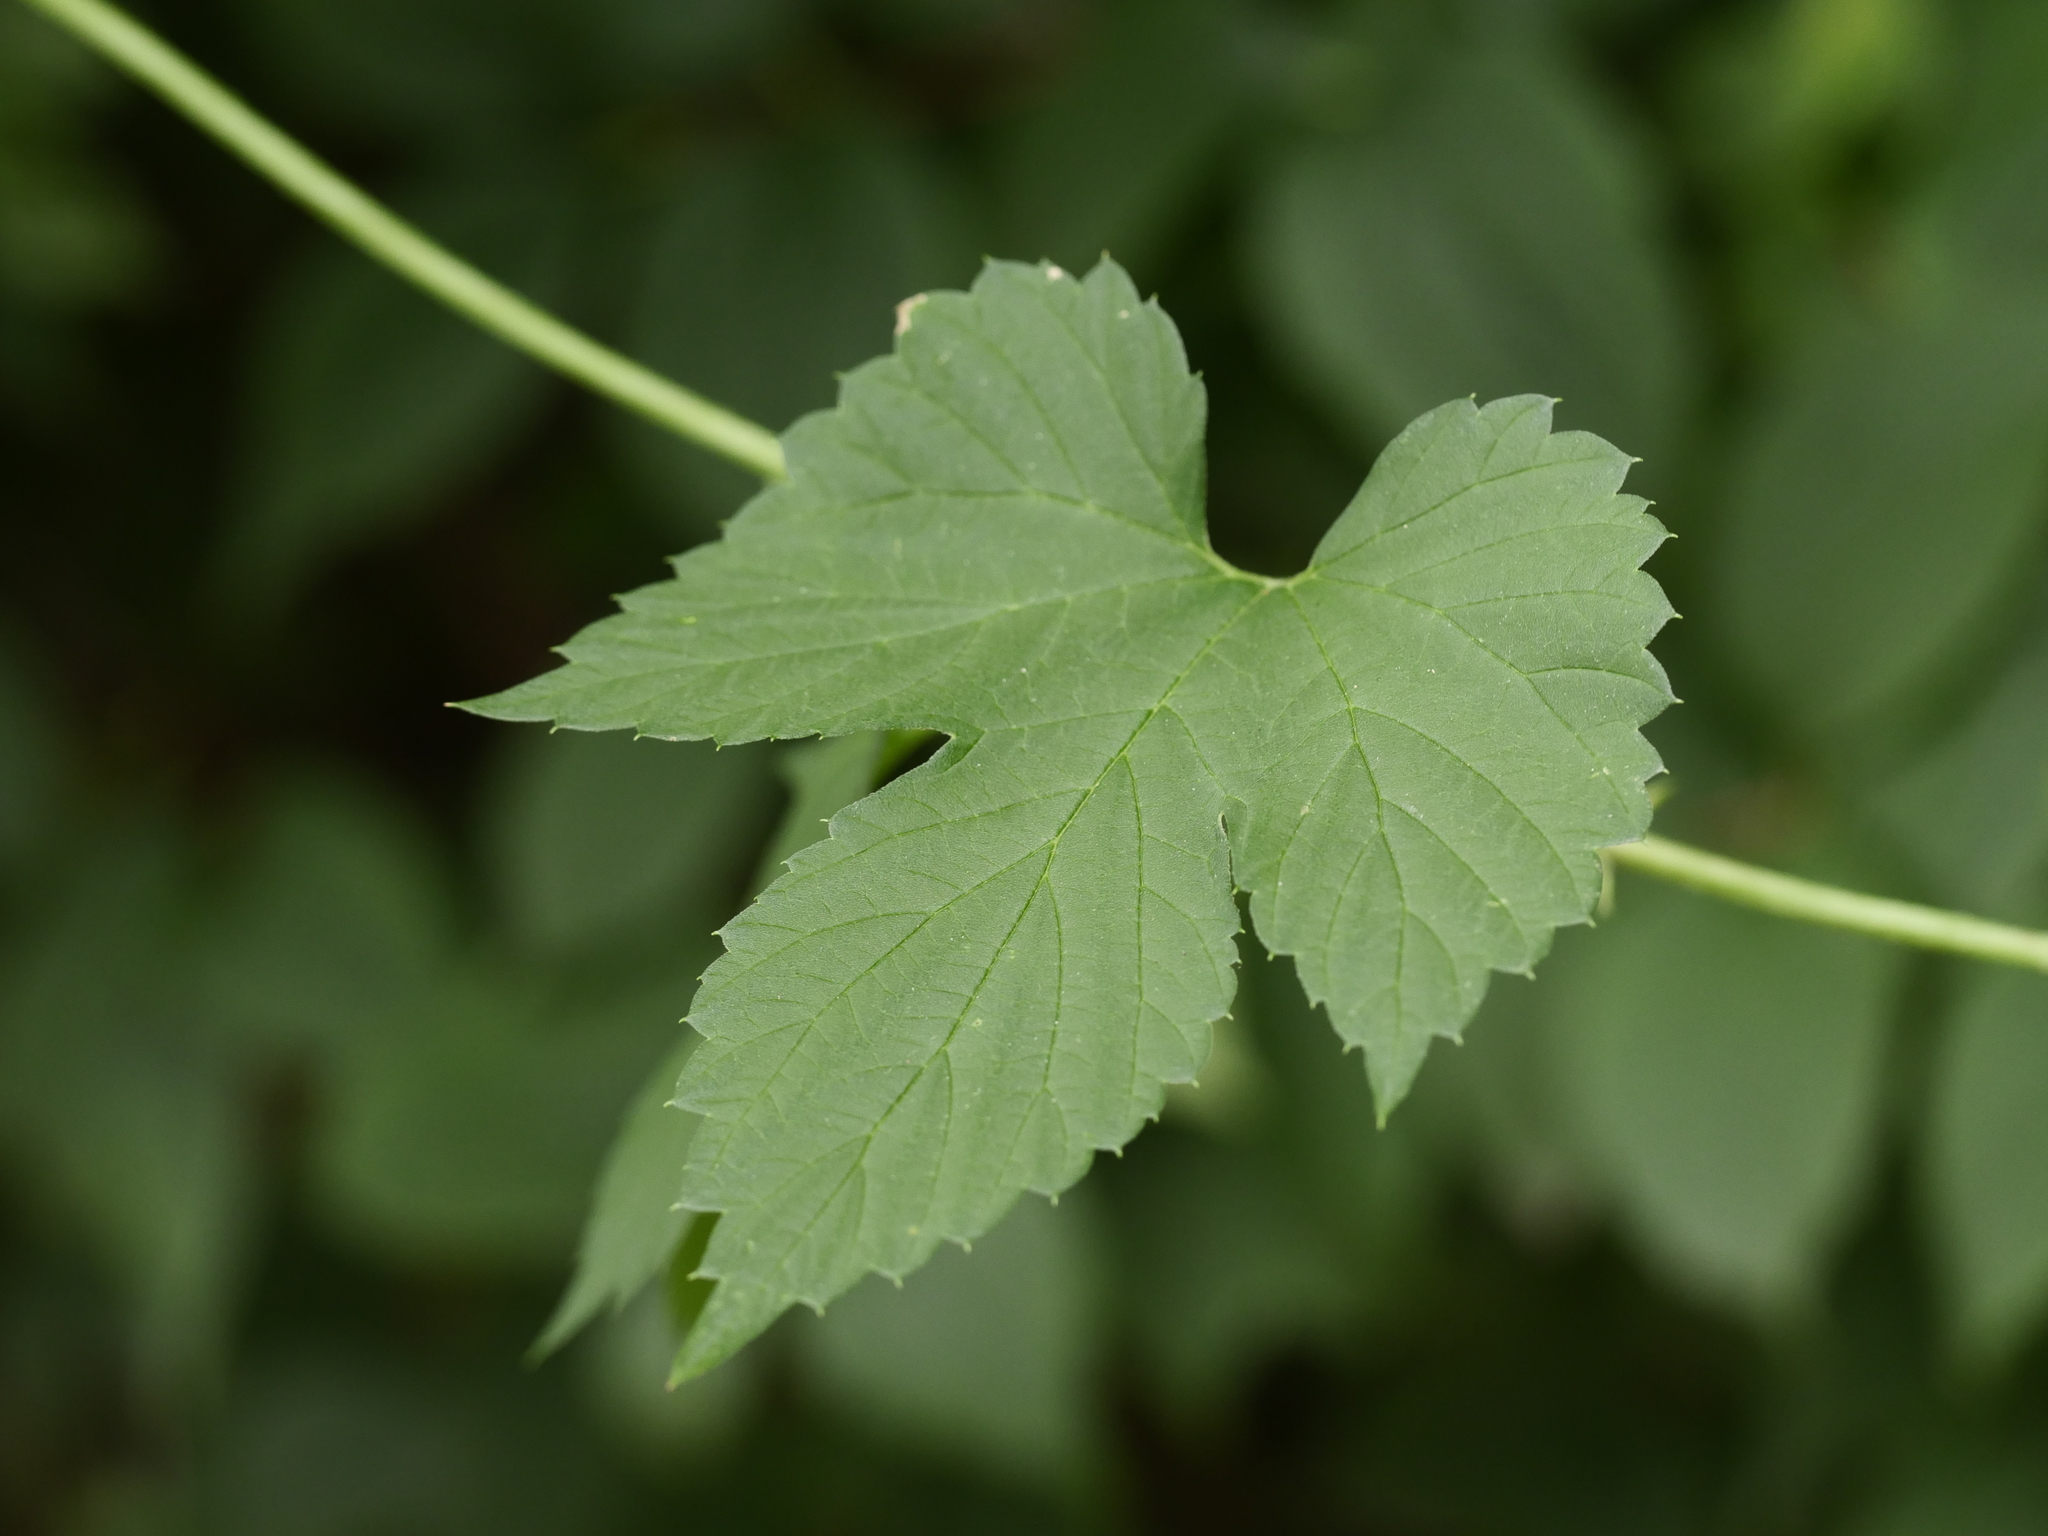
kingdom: Plantae
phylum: Tracheophyta
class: Magnoliopsida
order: Rosales
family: Cannabaceae
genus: Humulus
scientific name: Humulus lupulus
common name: Hop
